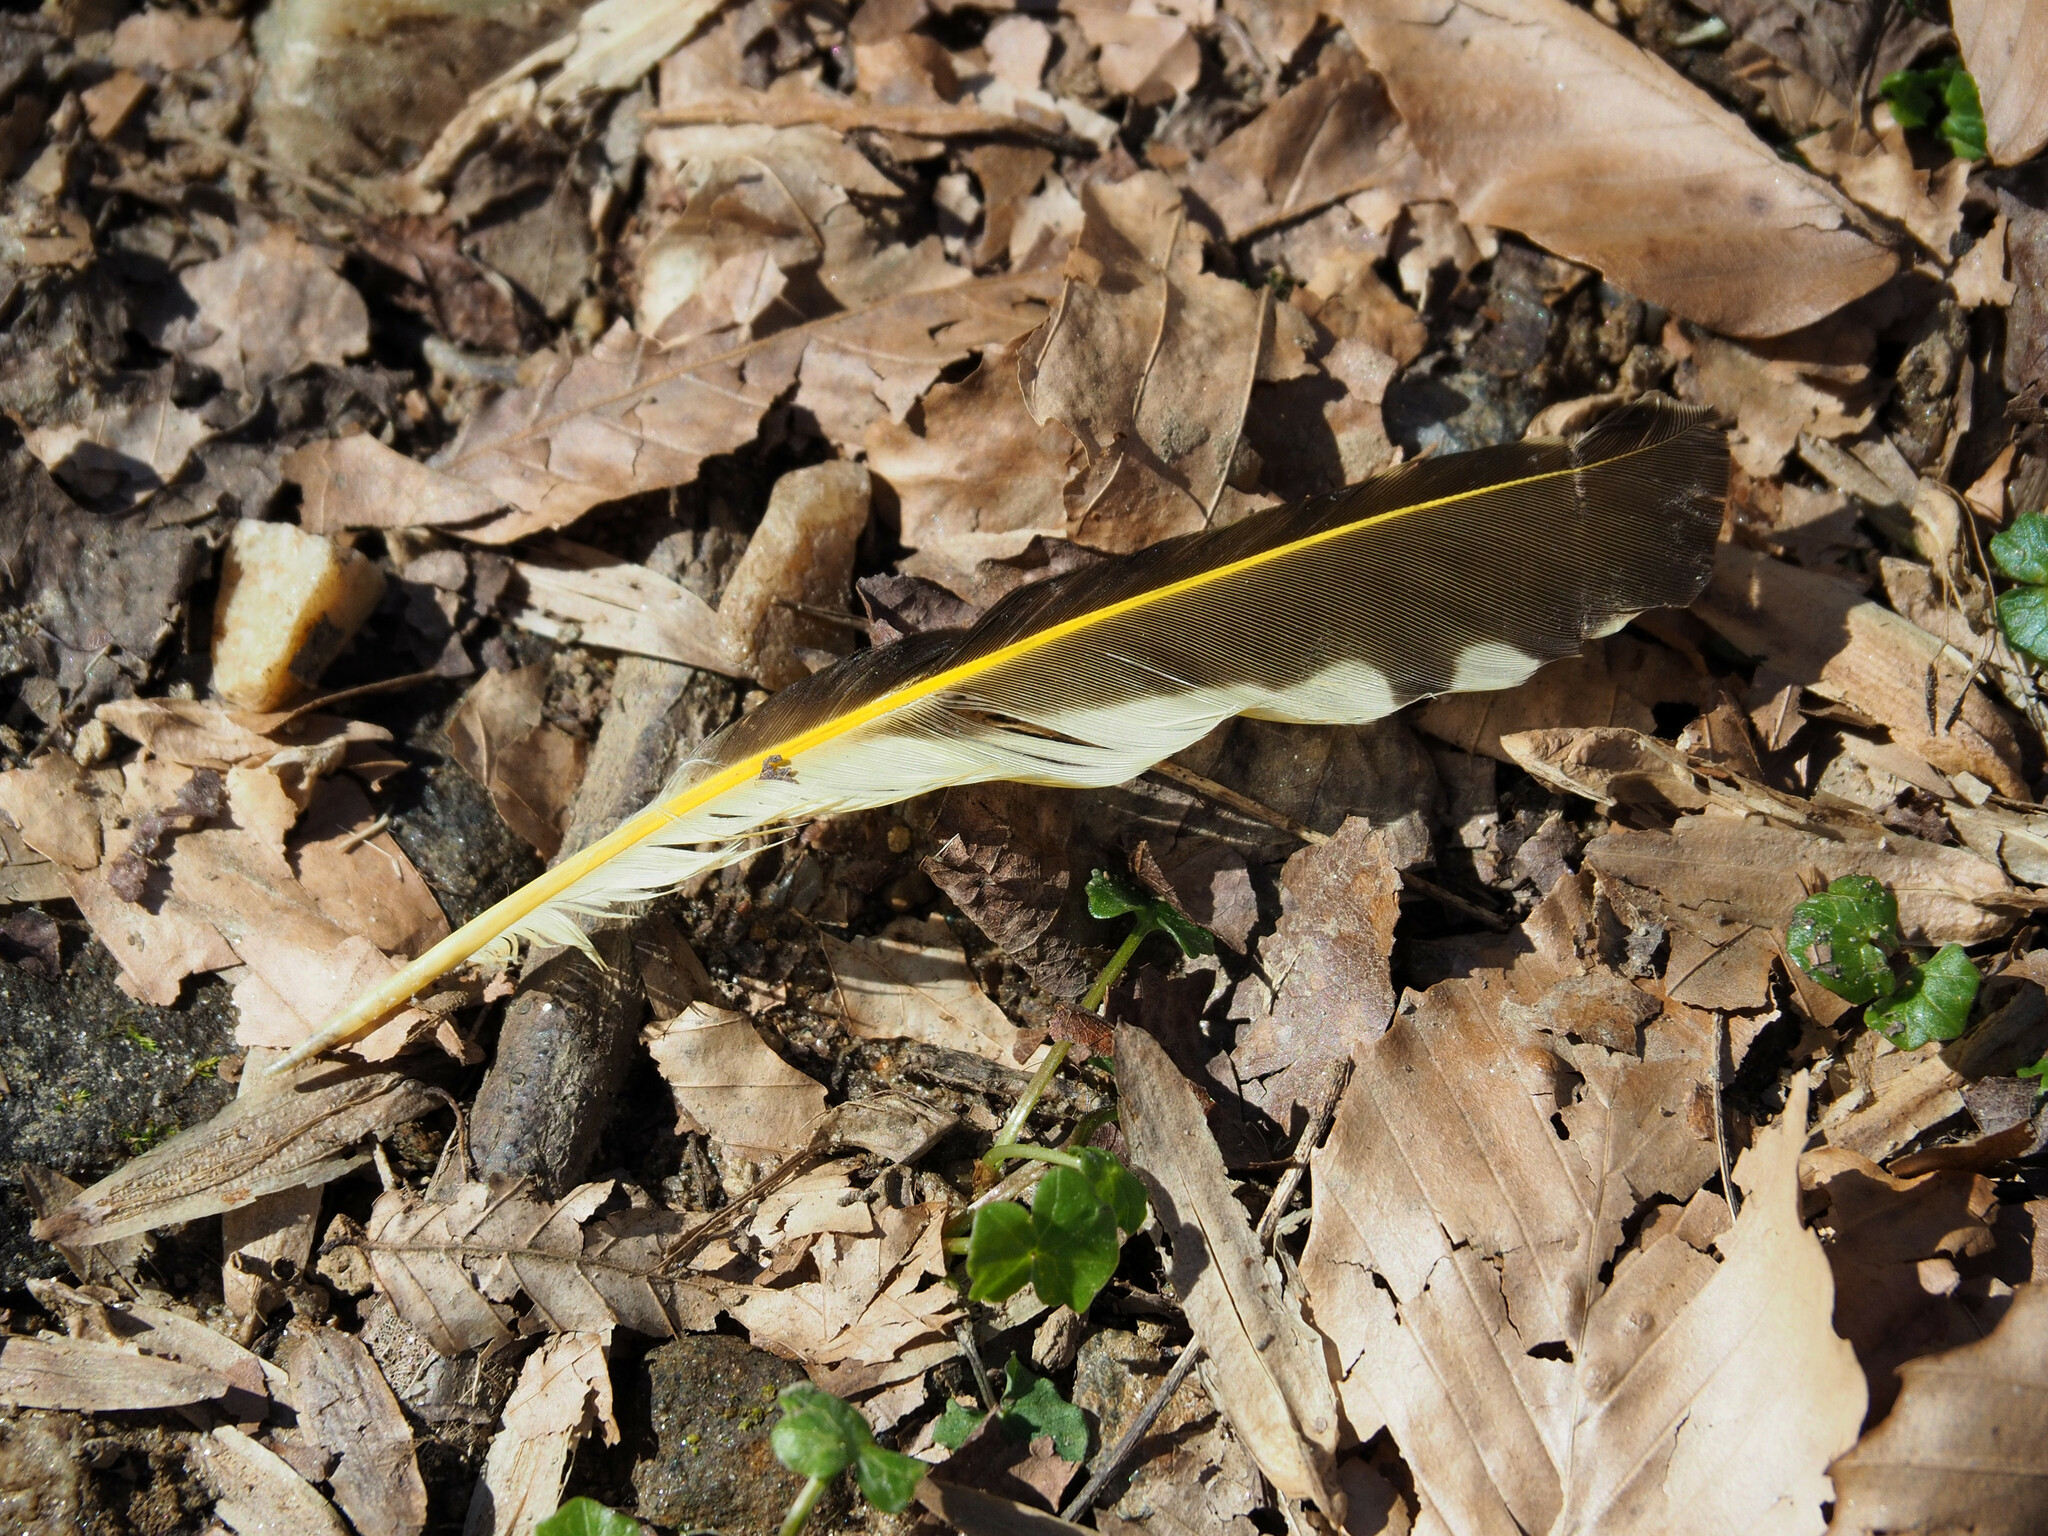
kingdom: Animalia
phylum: Chordata
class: Aves
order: Piciformes
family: Picidae
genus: Colaptes
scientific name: Colaptes auratus
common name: Northern flicker
